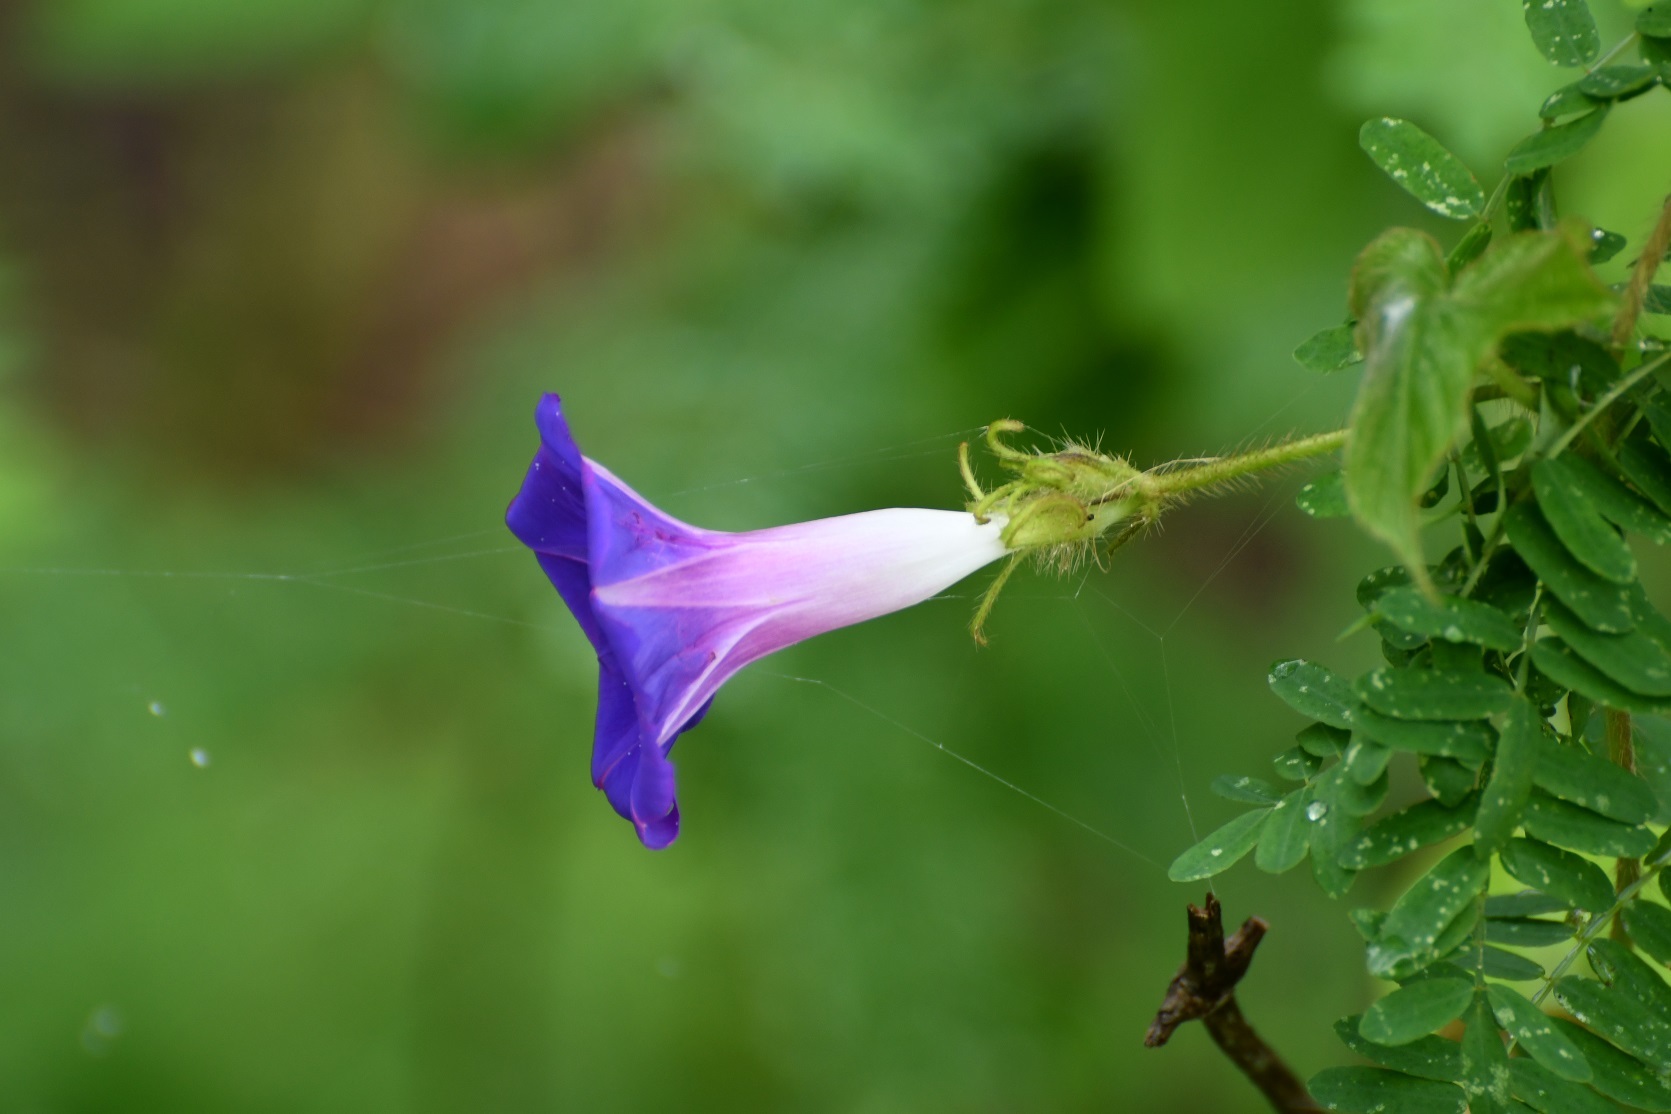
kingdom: Plantae
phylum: Tracheophyta
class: Magnoliopsida
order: Solanales
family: Convolvulaceae
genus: Ipomoea
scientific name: Ipomoea hederacea
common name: Ivy-leaved morning-glory
